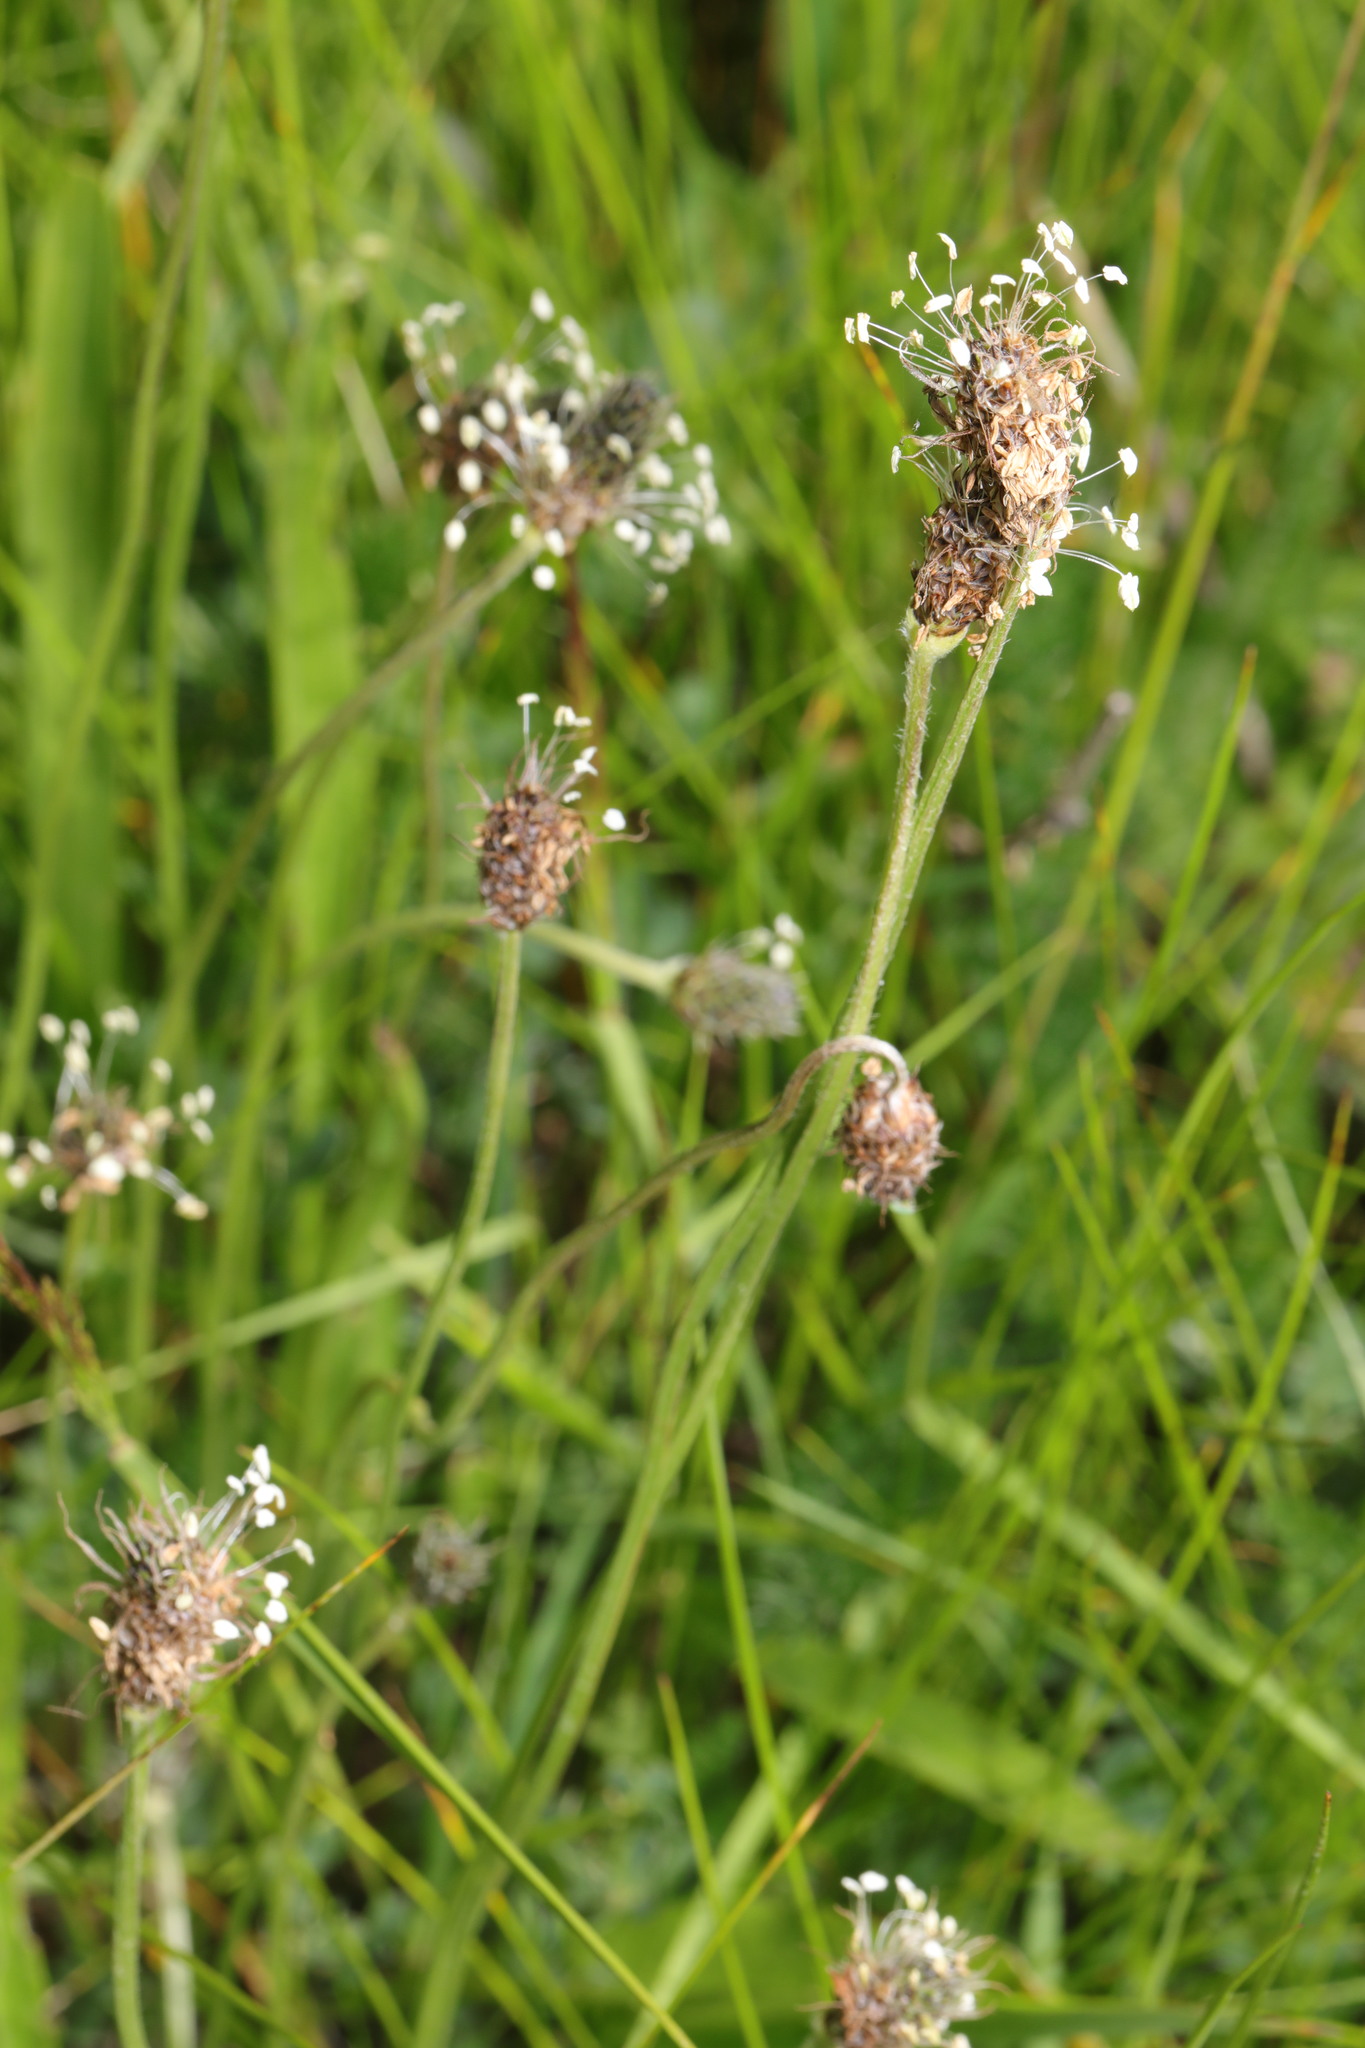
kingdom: Plantae
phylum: Tracheophyta
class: Magnoliopsida
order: Lamiales
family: Plantaginaceae
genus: Plantago
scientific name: Plantago lanceolata
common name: Ribwort plantain
